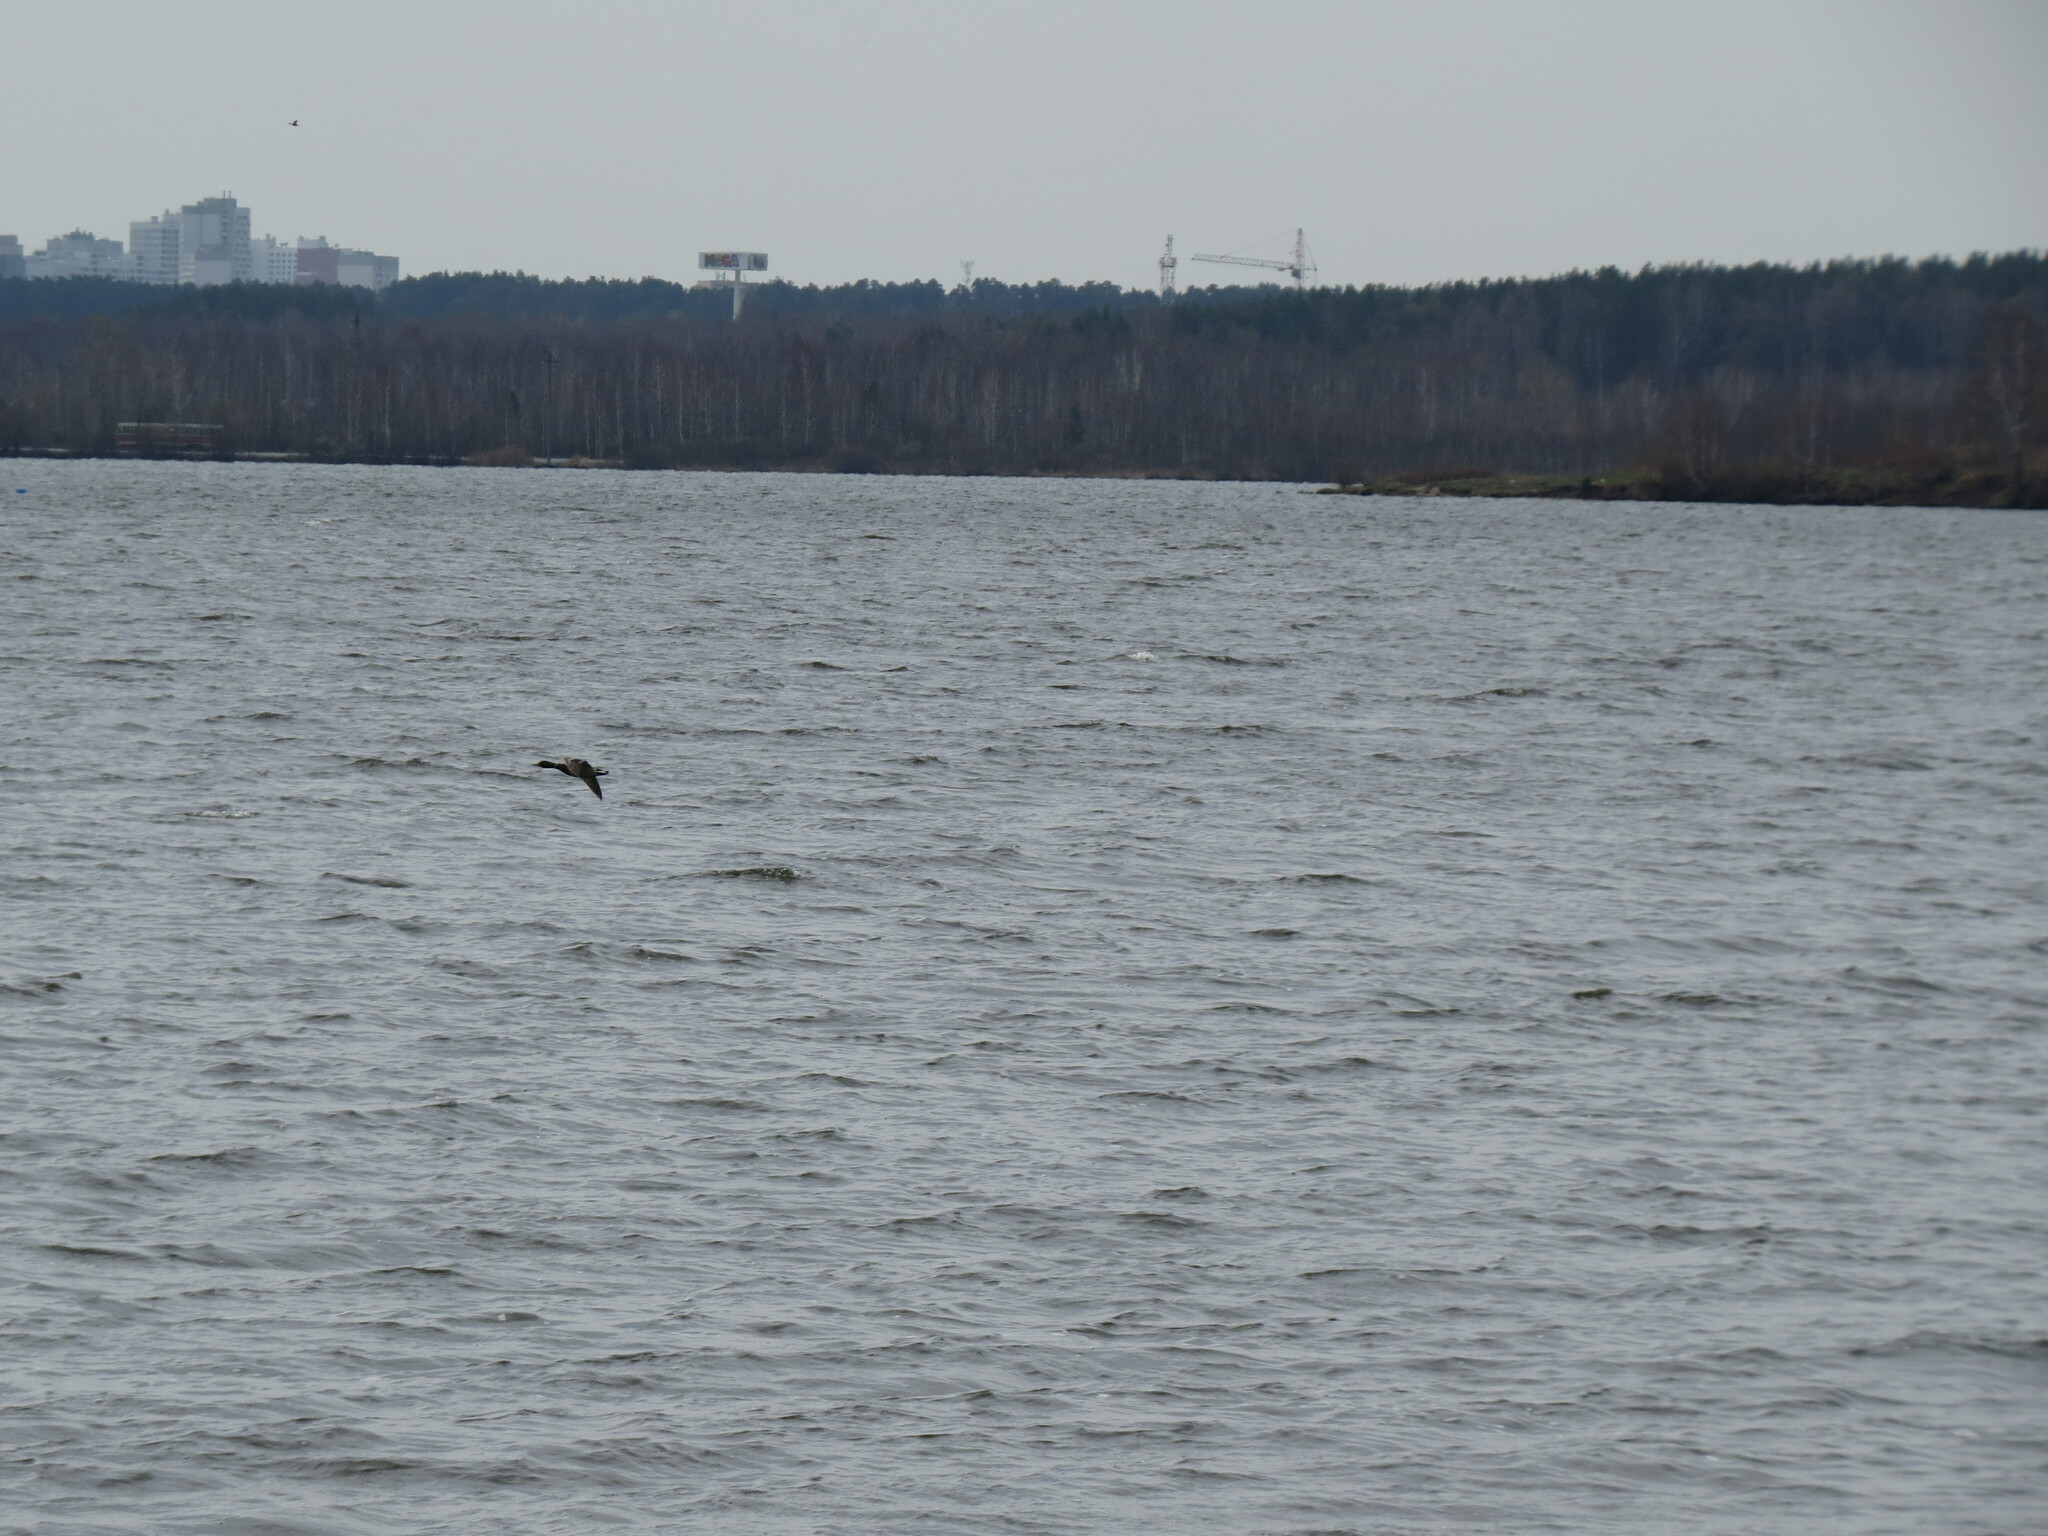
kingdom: Animalia
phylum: Chordata
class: Aves
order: Anseriformes
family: Anatidae
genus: Anas
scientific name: Anas platyrhynchos
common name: Mallard
